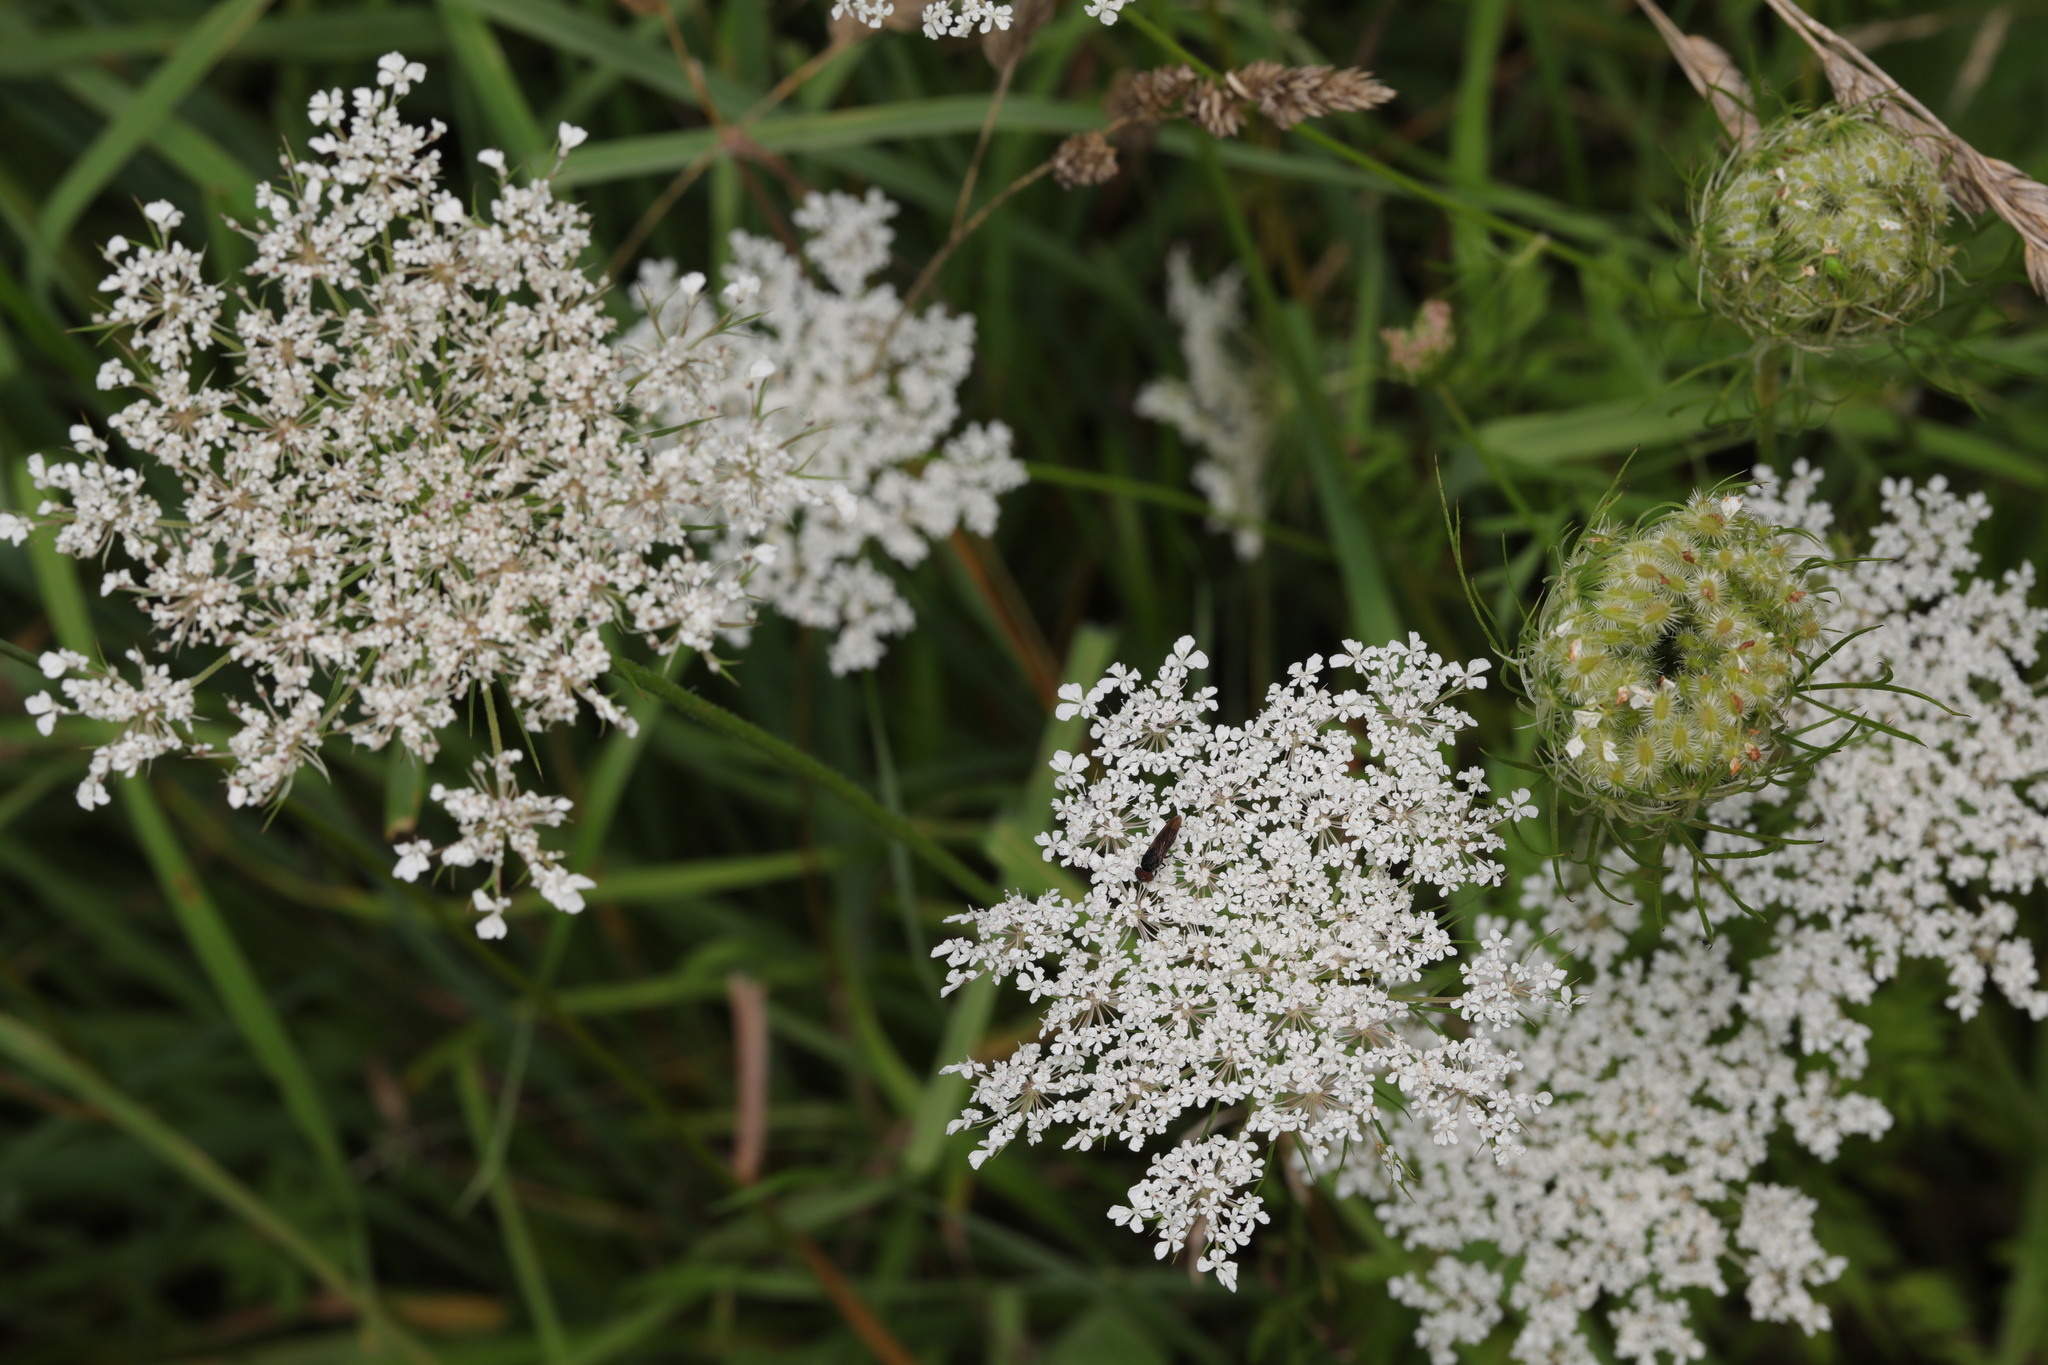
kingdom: Plantae
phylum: Tracheophyta
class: Magnoliopsida
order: Apiales
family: Apiaceae
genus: Daucus
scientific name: Daucus carota
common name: Wild carrot
